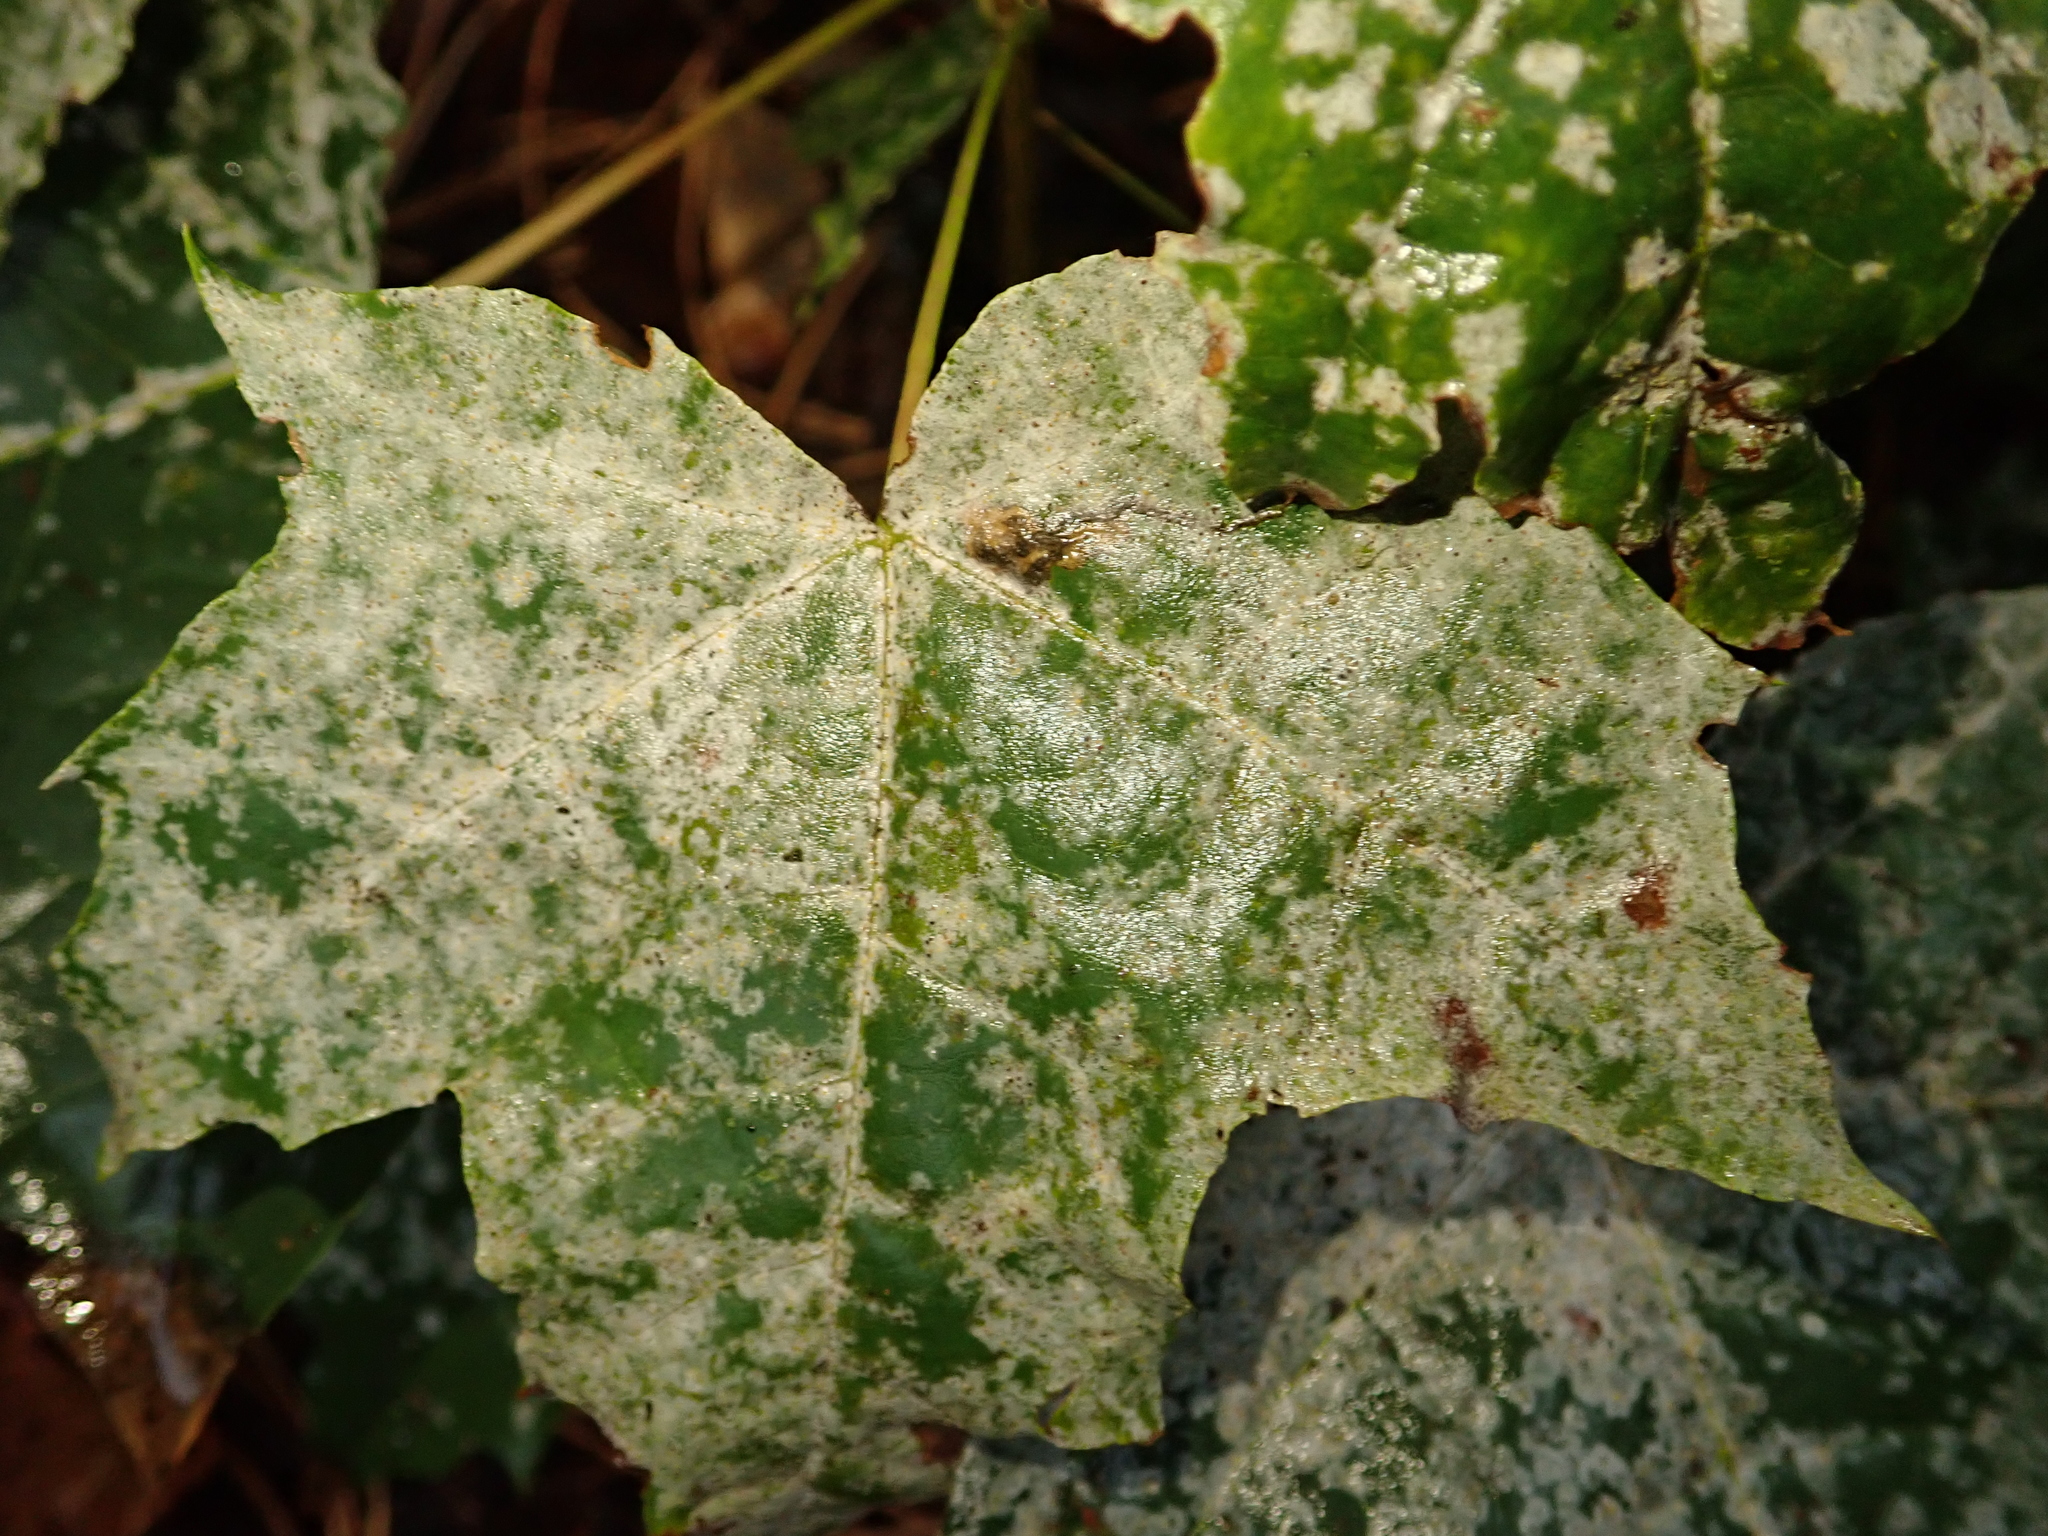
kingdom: Fungi
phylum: Ascomycota
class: Leotiomycetes
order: Helotiales
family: Erysiphaceae
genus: Sawadaea
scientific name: Sawadaea tulasnei
